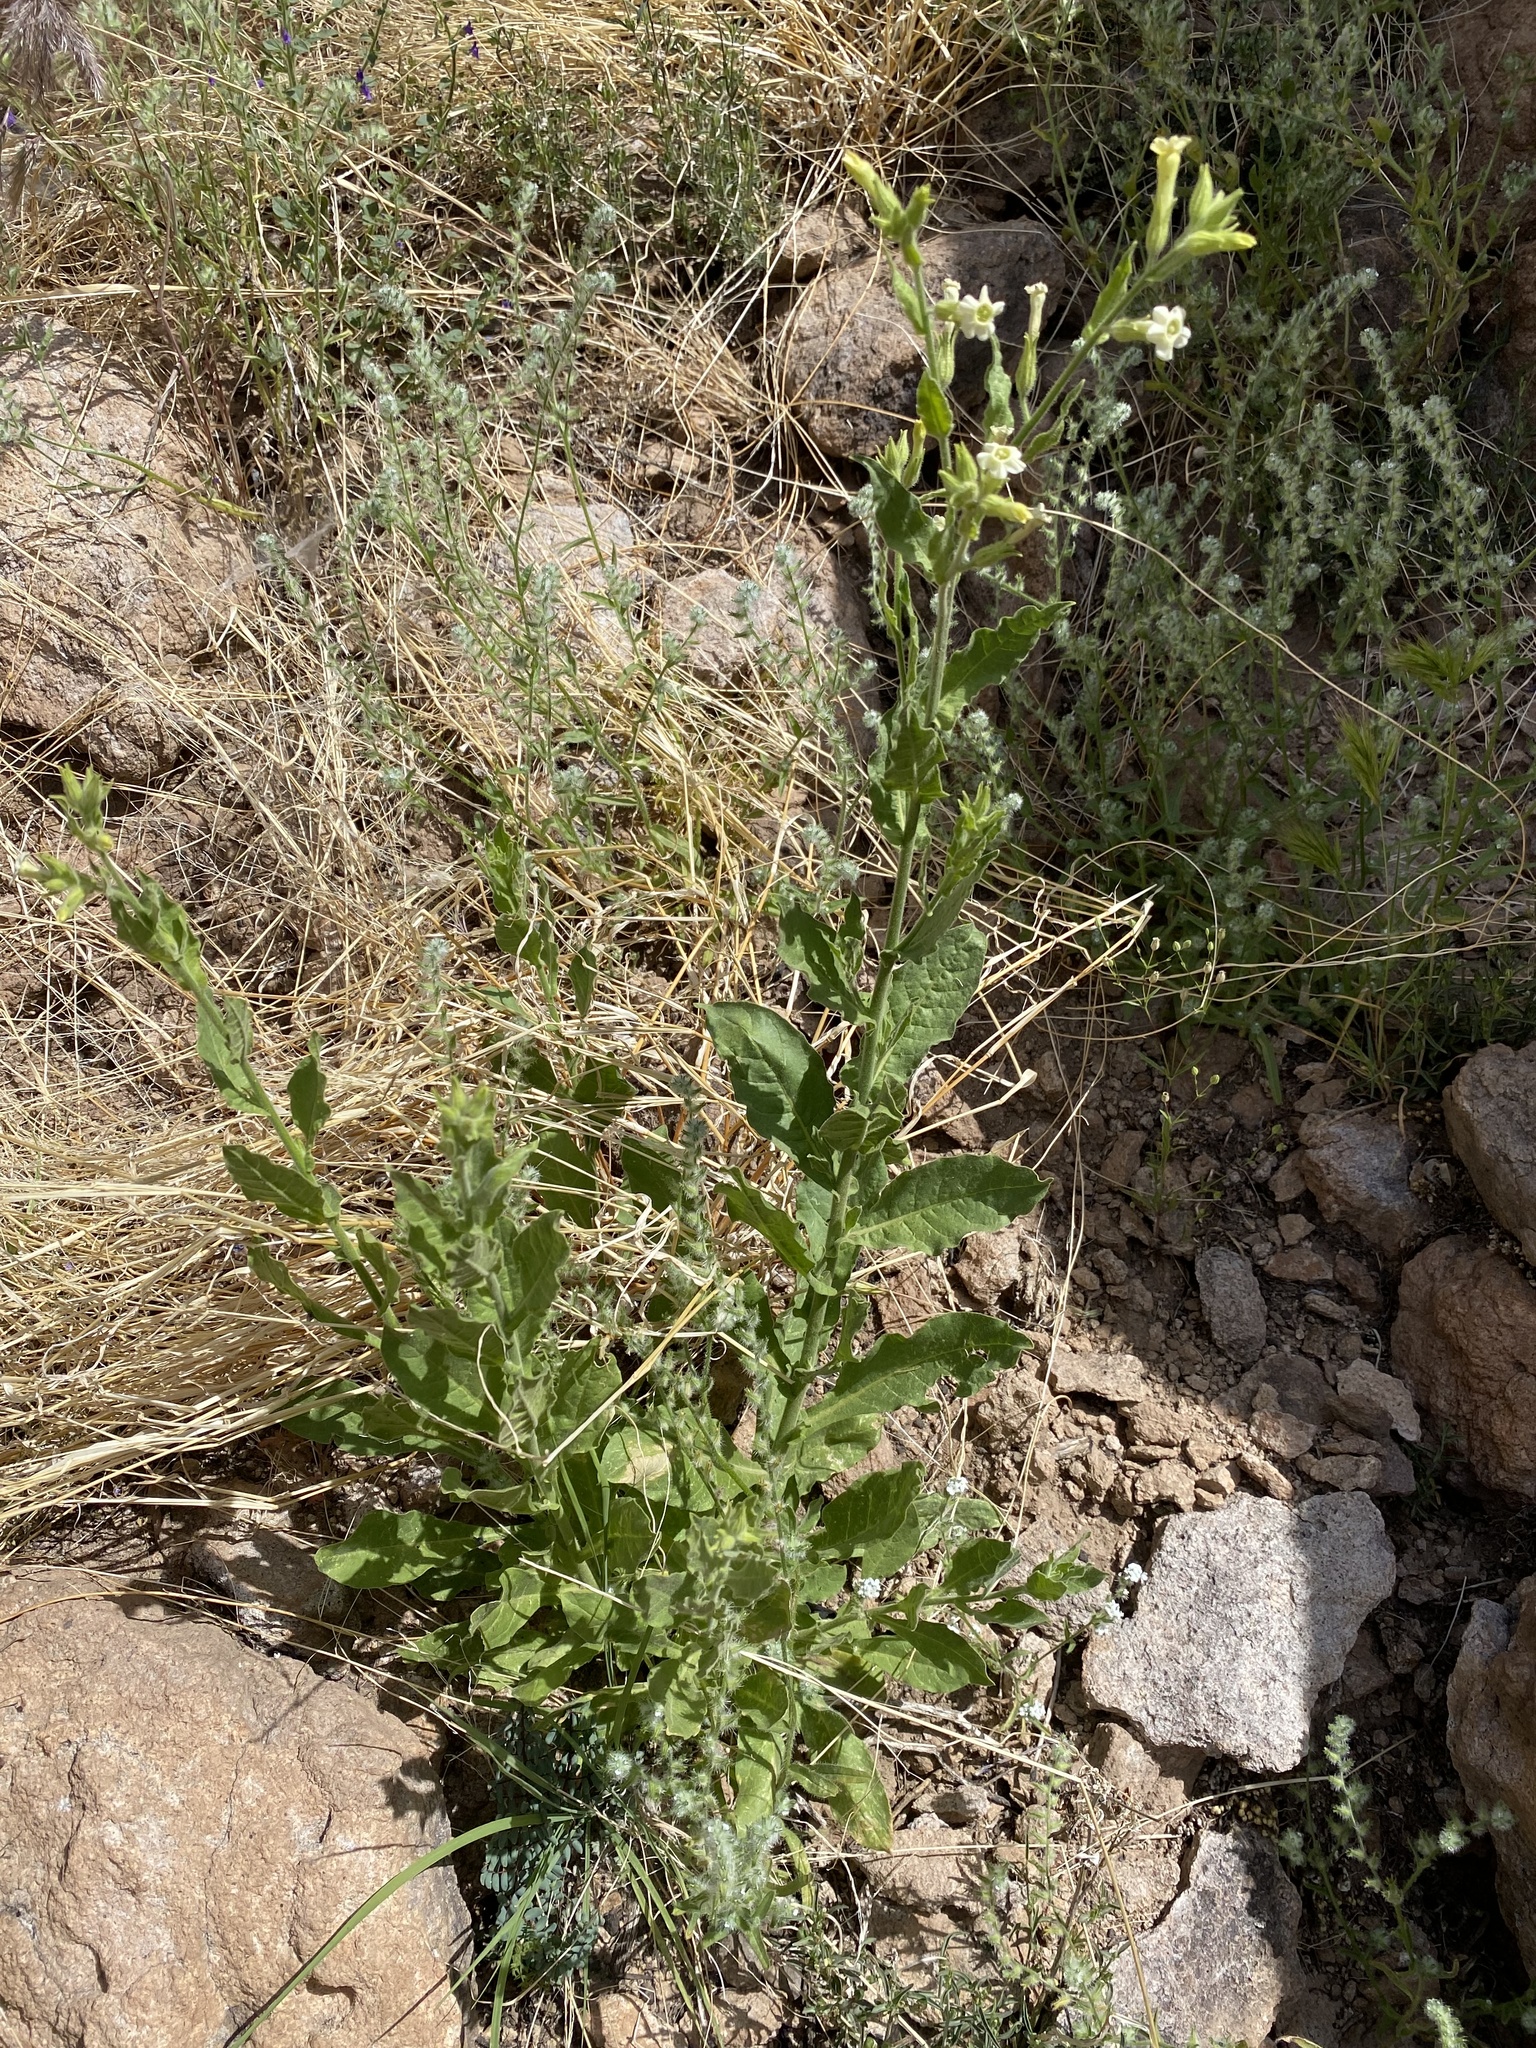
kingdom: Plantae
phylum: Tracheophyta
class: Magnoliopsida
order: Solanales
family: Solanaceae
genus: Nicotiana
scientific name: Nicotiana obtusifolia
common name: Desert tobacco
